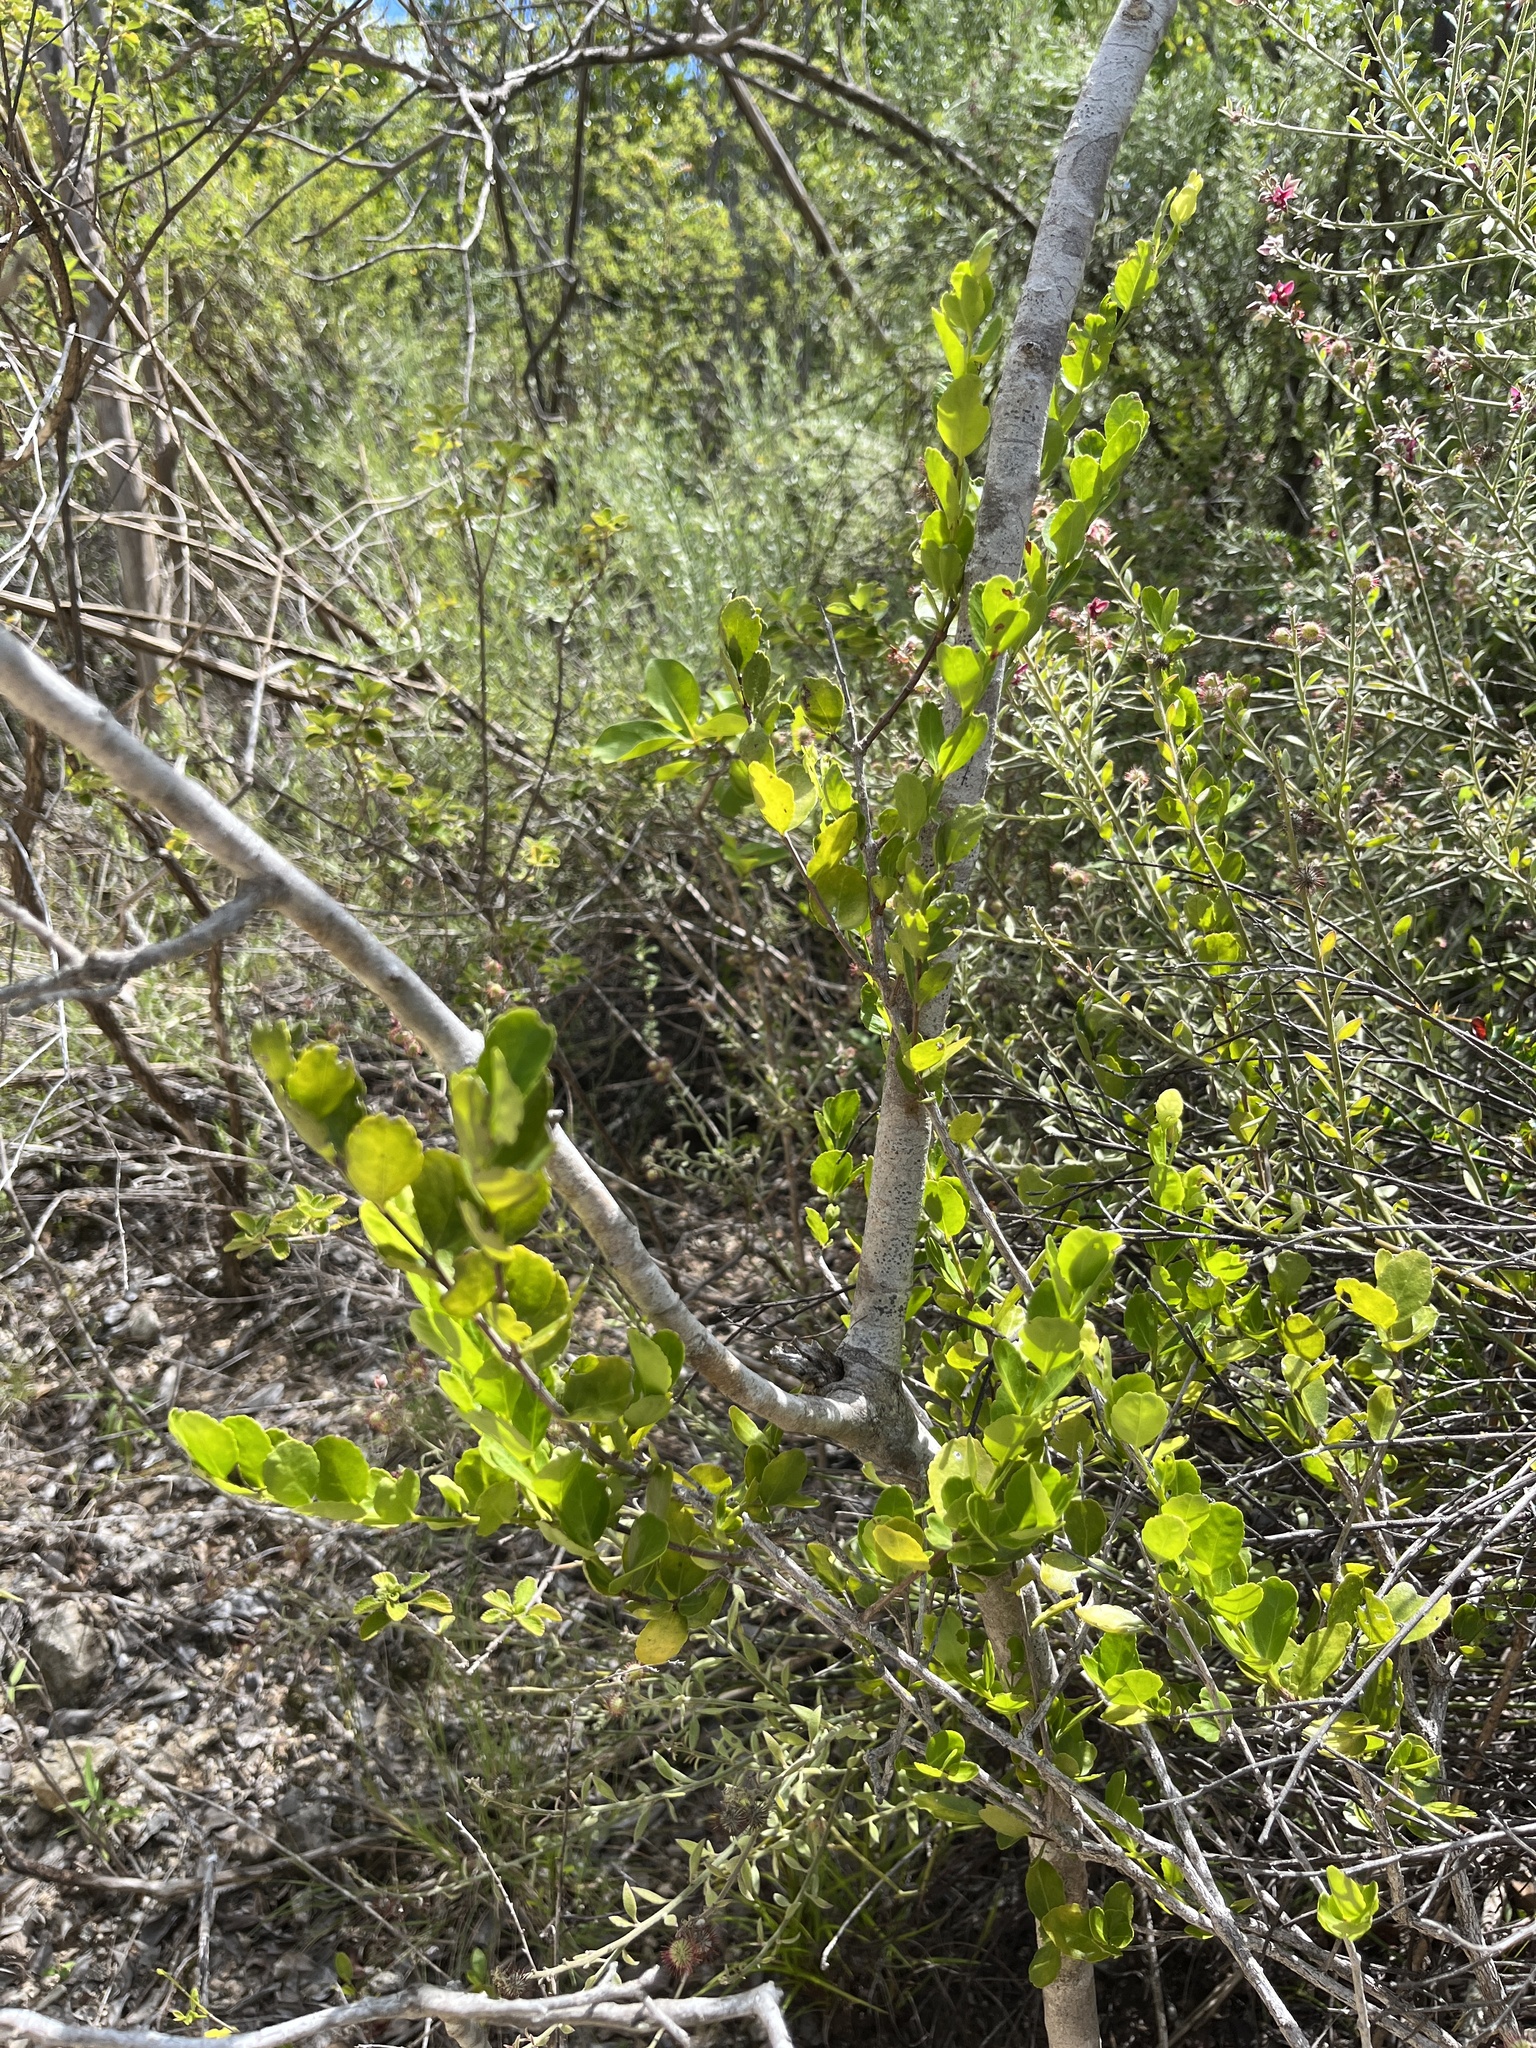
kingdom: Plantae
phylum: Tracheophyta
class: Magnoliopsida
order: Celastrales
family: Celastraceae
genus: Crossopetalum
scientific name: Crossopetalum rhacoma
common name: Maidenberry
